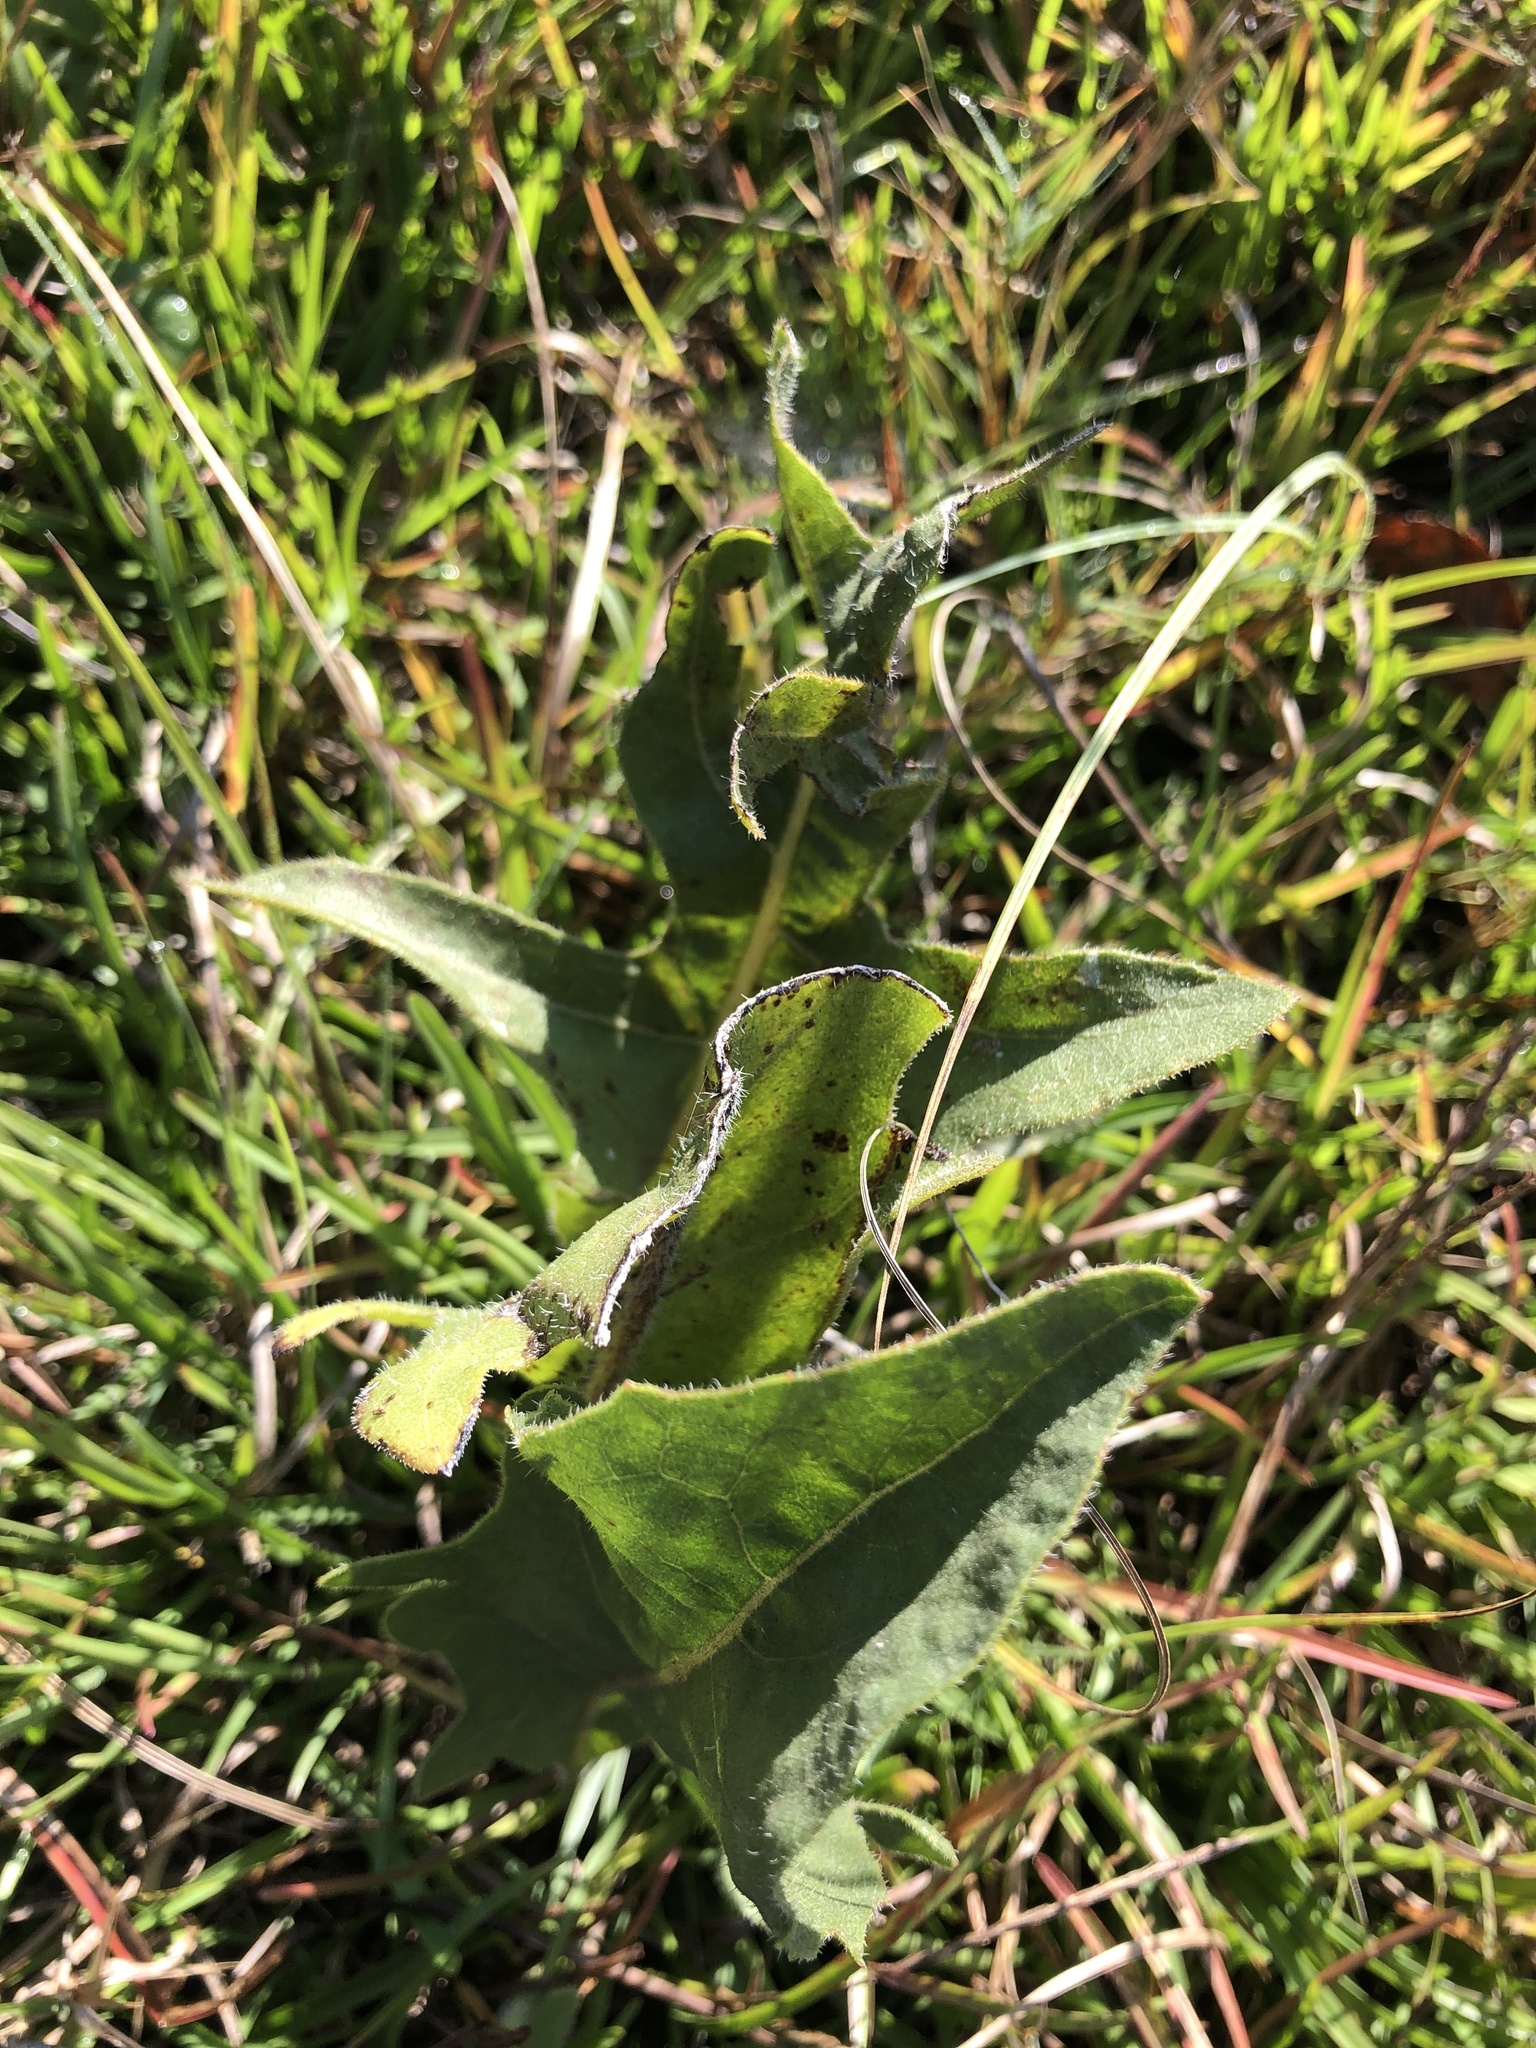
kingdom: Plantae
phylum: Tracheophyta
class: Magnoliopsida
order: Asterales
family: Asteraceae
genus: Silphium
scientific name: Silphium laciniatum
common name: Polarplant
